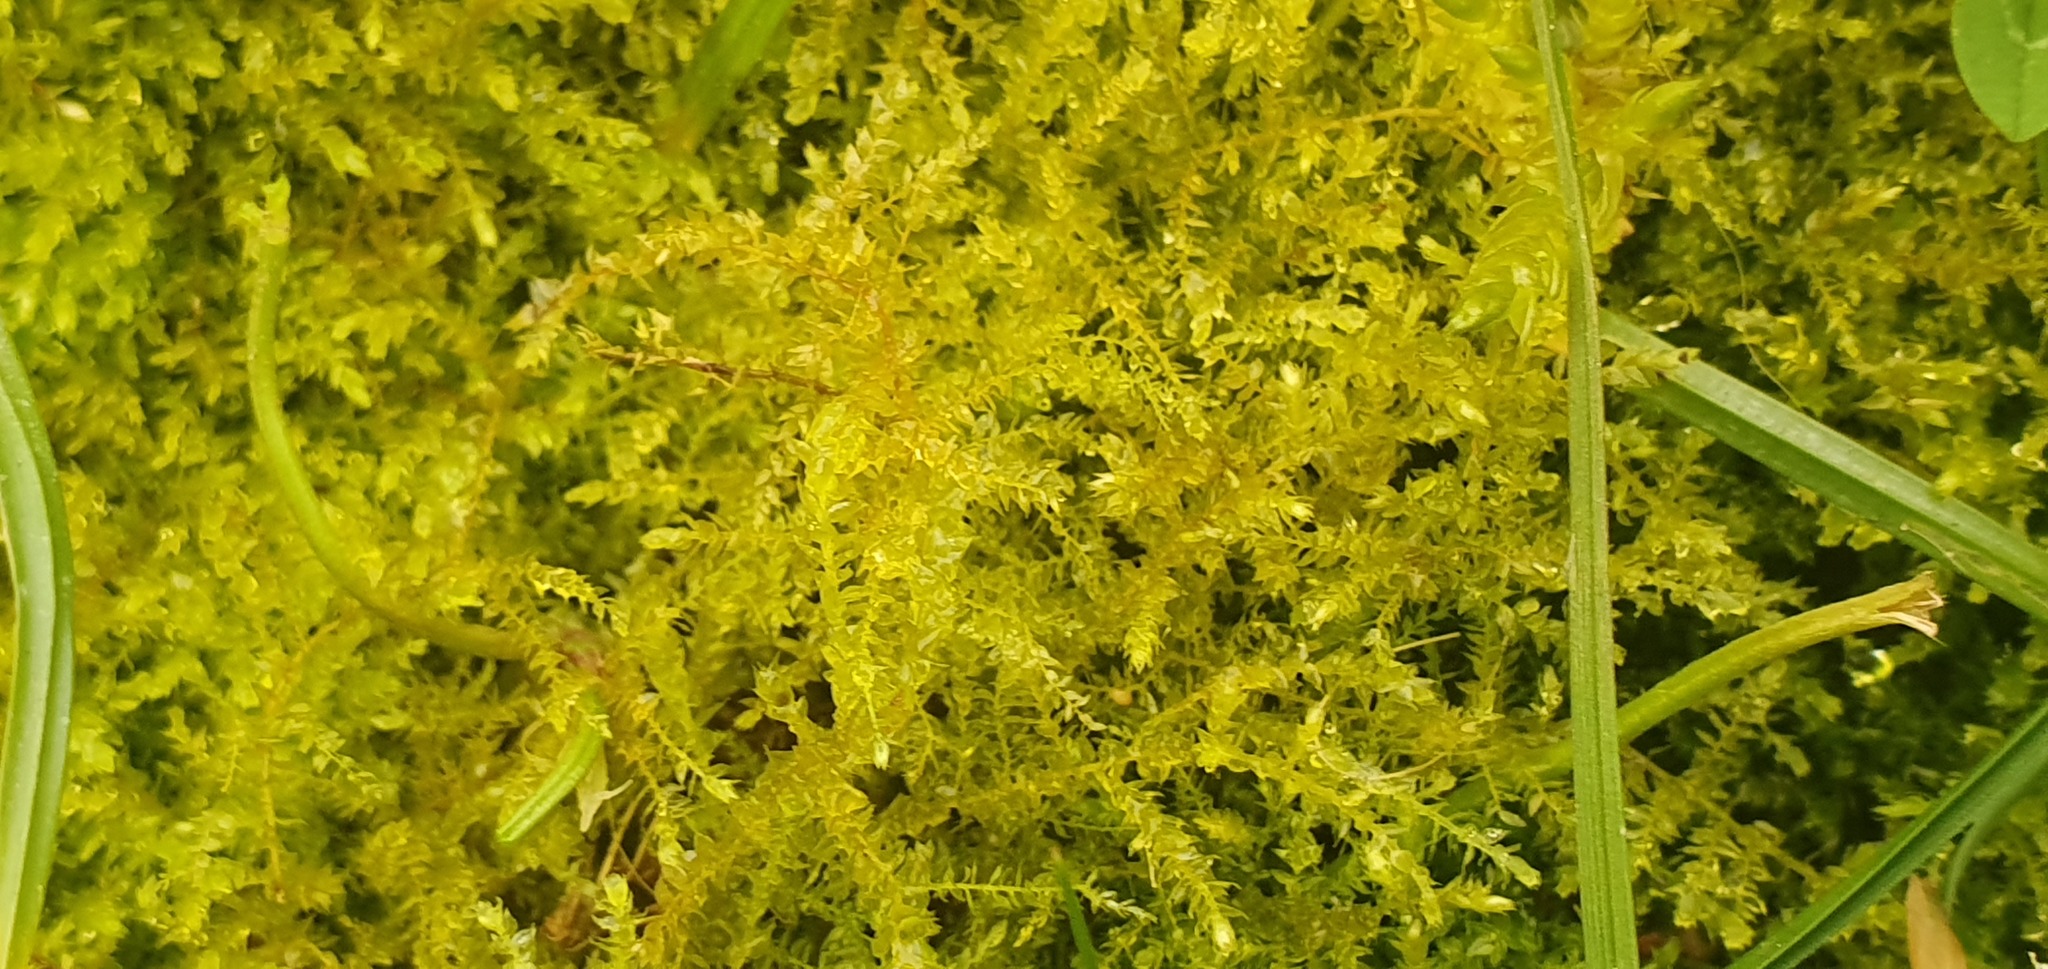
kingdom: Plantae
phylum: Bryophyta
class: Bryopsida
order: Hypnales
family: Brachytheciaceae
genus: Oxyrrhynchium
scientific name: Oxyrrhynchium hians
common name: Spreading beaked moss
